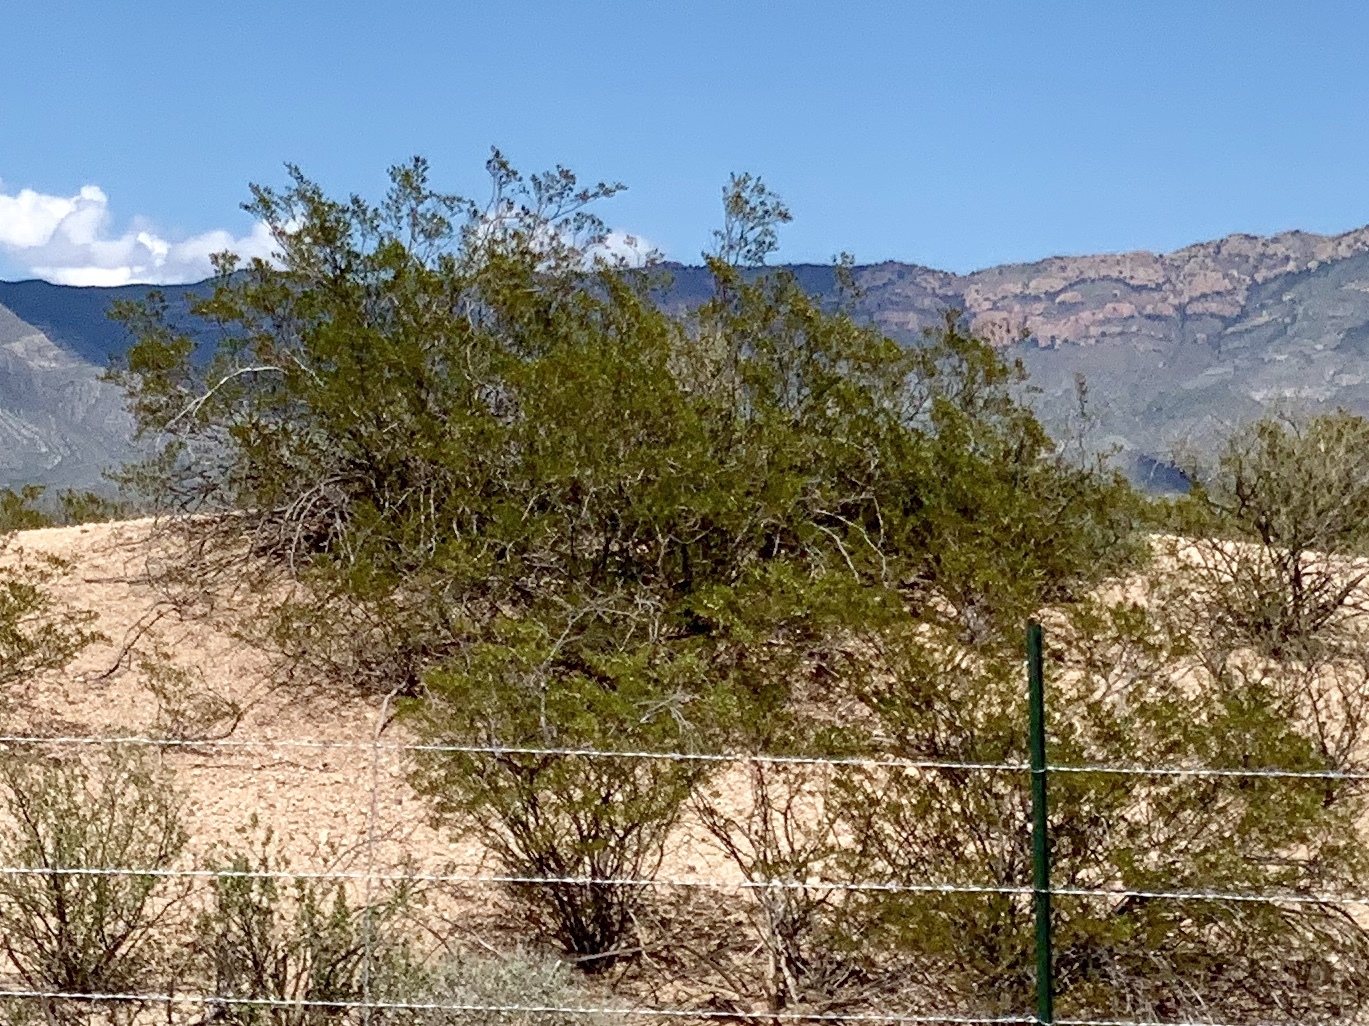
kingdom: Plantae
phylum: Tracheophyta
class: Magnoliopsida
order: Zygophyllales
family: Zygophyllaceae
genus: Larrea
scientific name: Larrea tridentata
